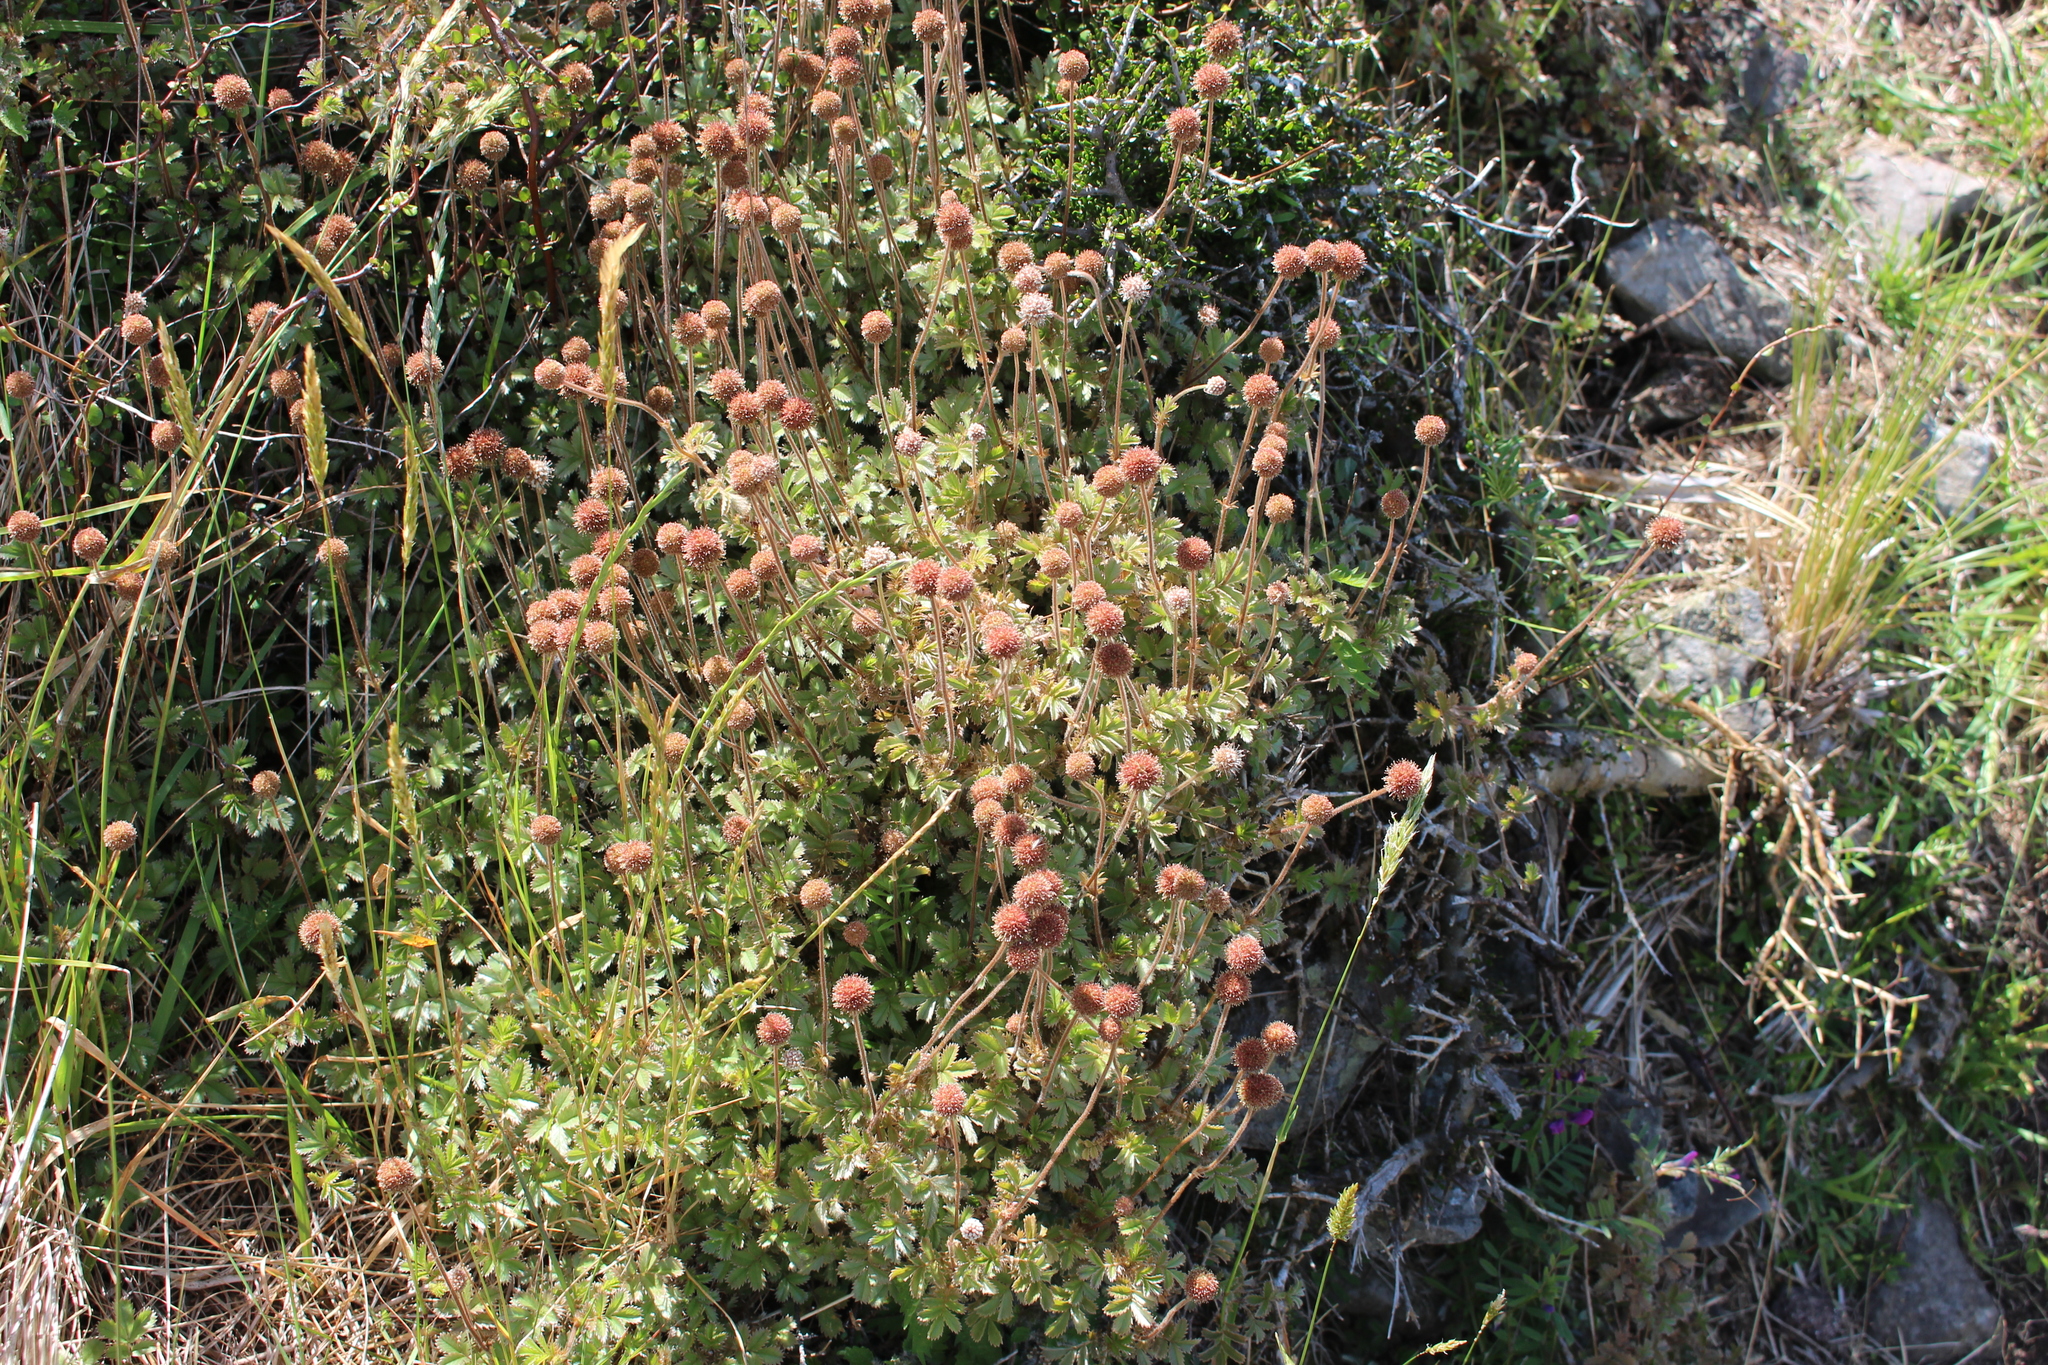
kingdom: Plantae
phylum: Tracheophyta
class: Magnoliopsida
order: Rosales
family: Rosaceae
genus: Acaena
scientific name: Acaena anserinifolia
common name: Bronze pirri-pirri-bur
